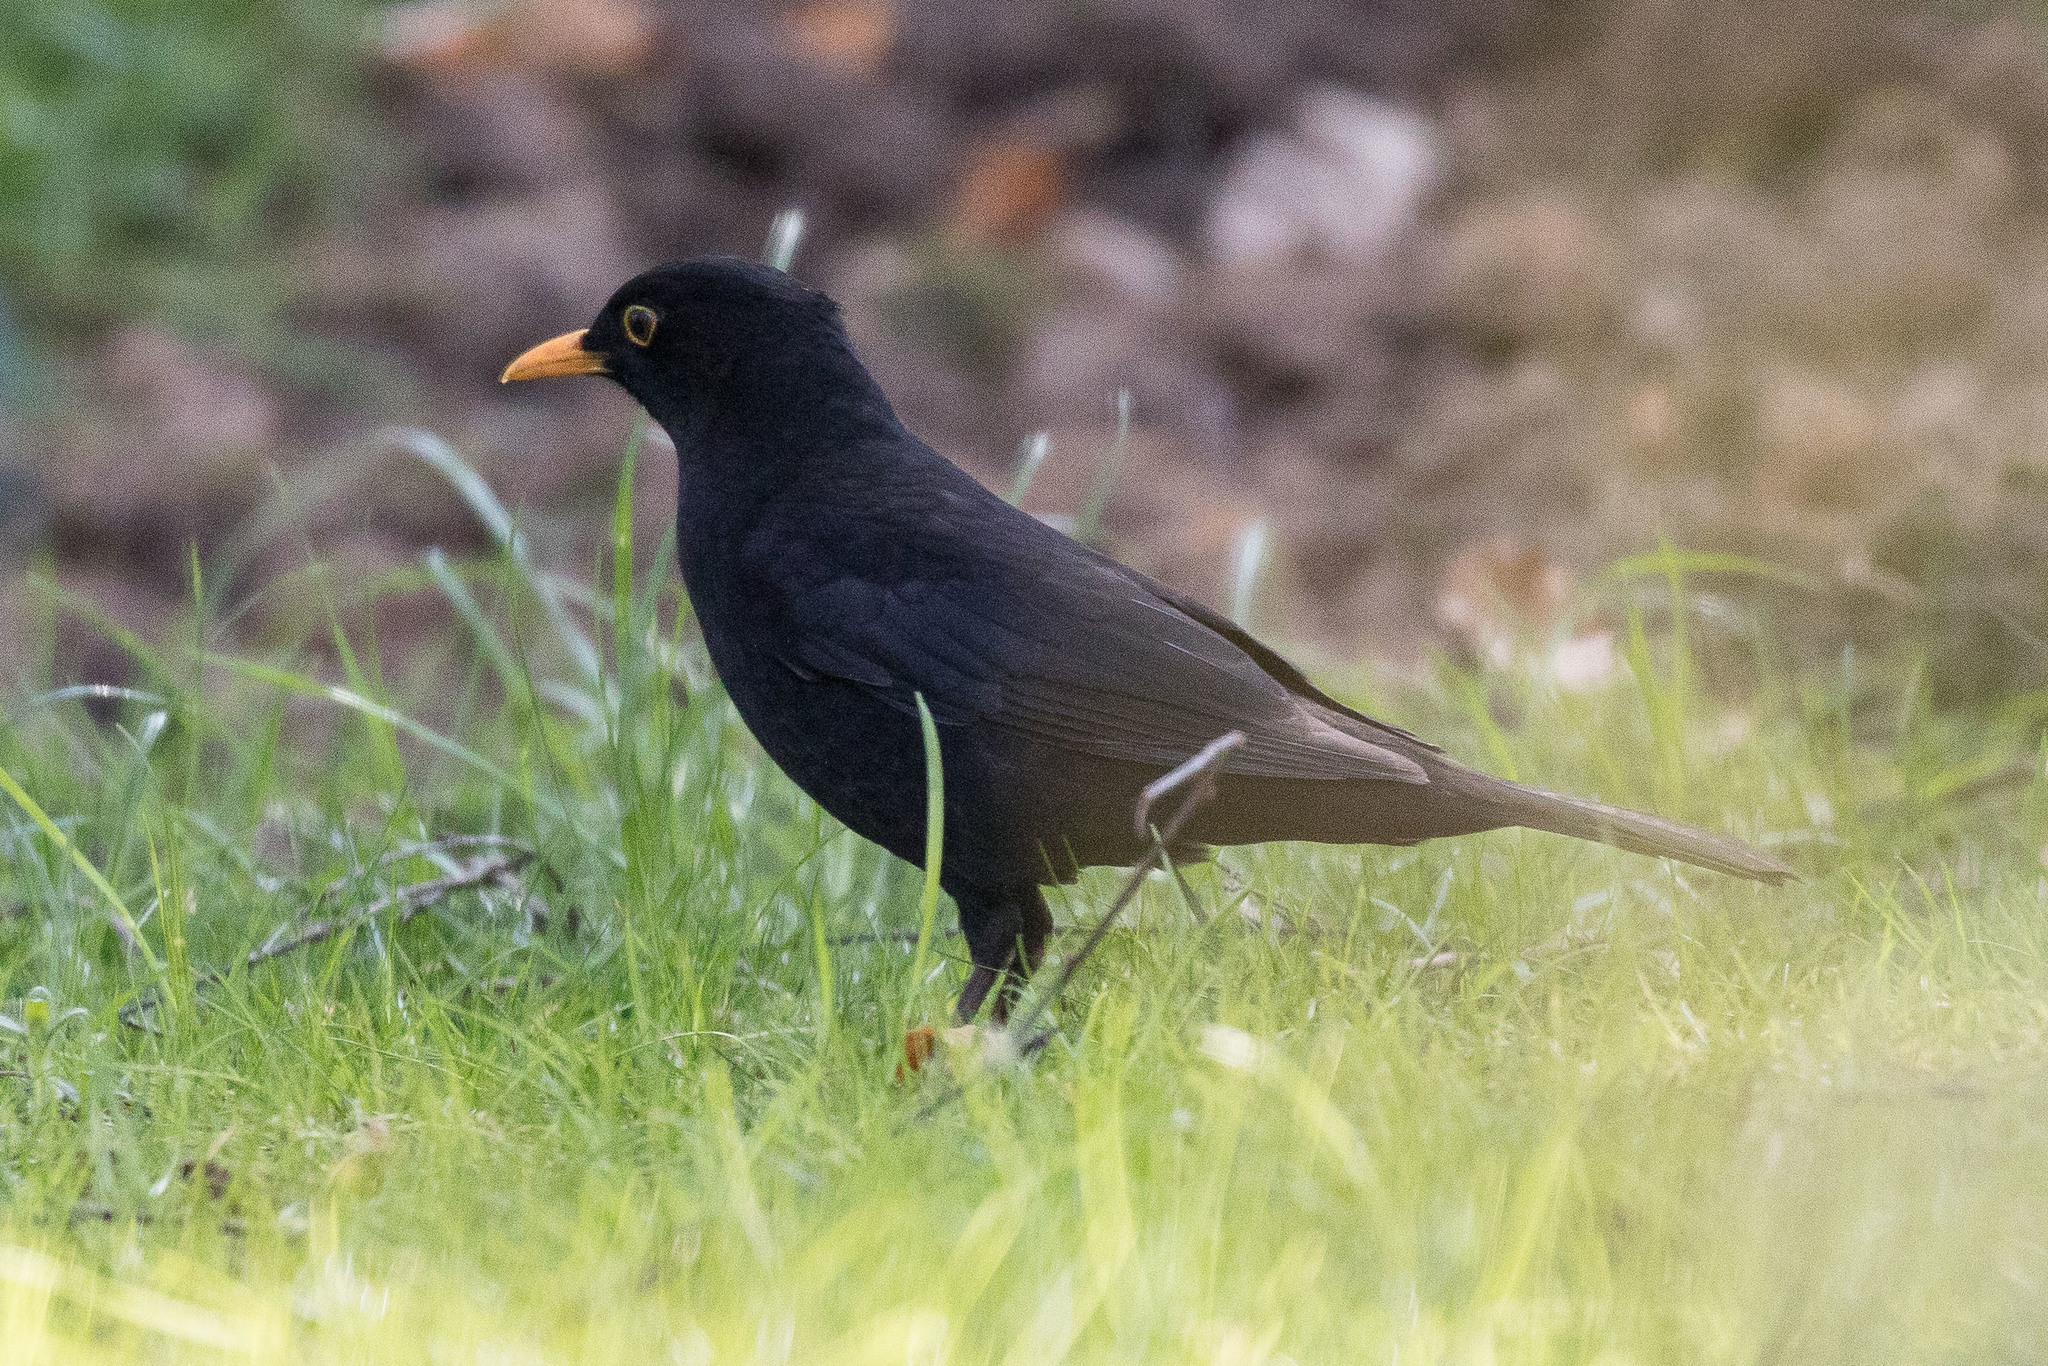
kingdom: Animalia
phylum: Chordata
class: Aves
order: Passeriformes
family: Turdidae
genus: Turdus
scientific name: Turdus merula
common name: Common blackbird
